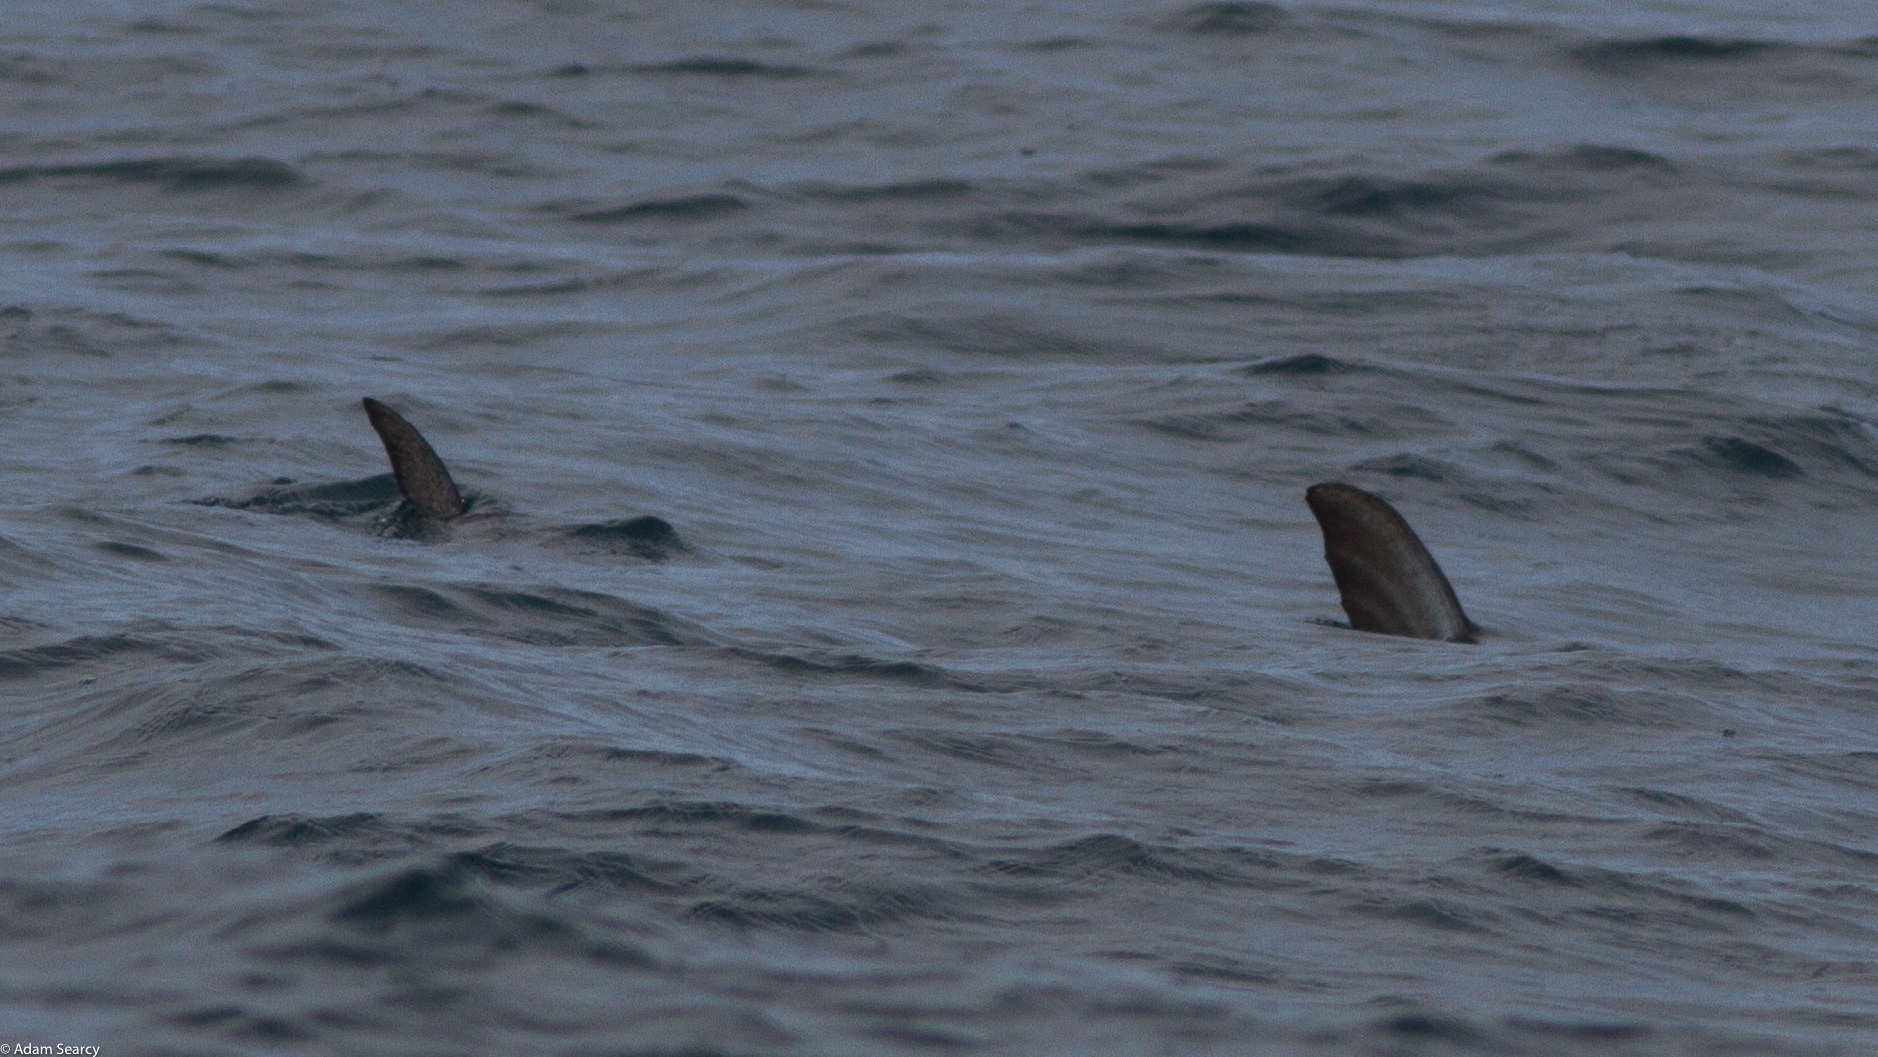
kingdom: Animalia
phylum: Chordata
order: Perciformes
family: Xiphiidae
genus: Xiphias
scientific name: Xiphias gladius
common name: Swordfish
